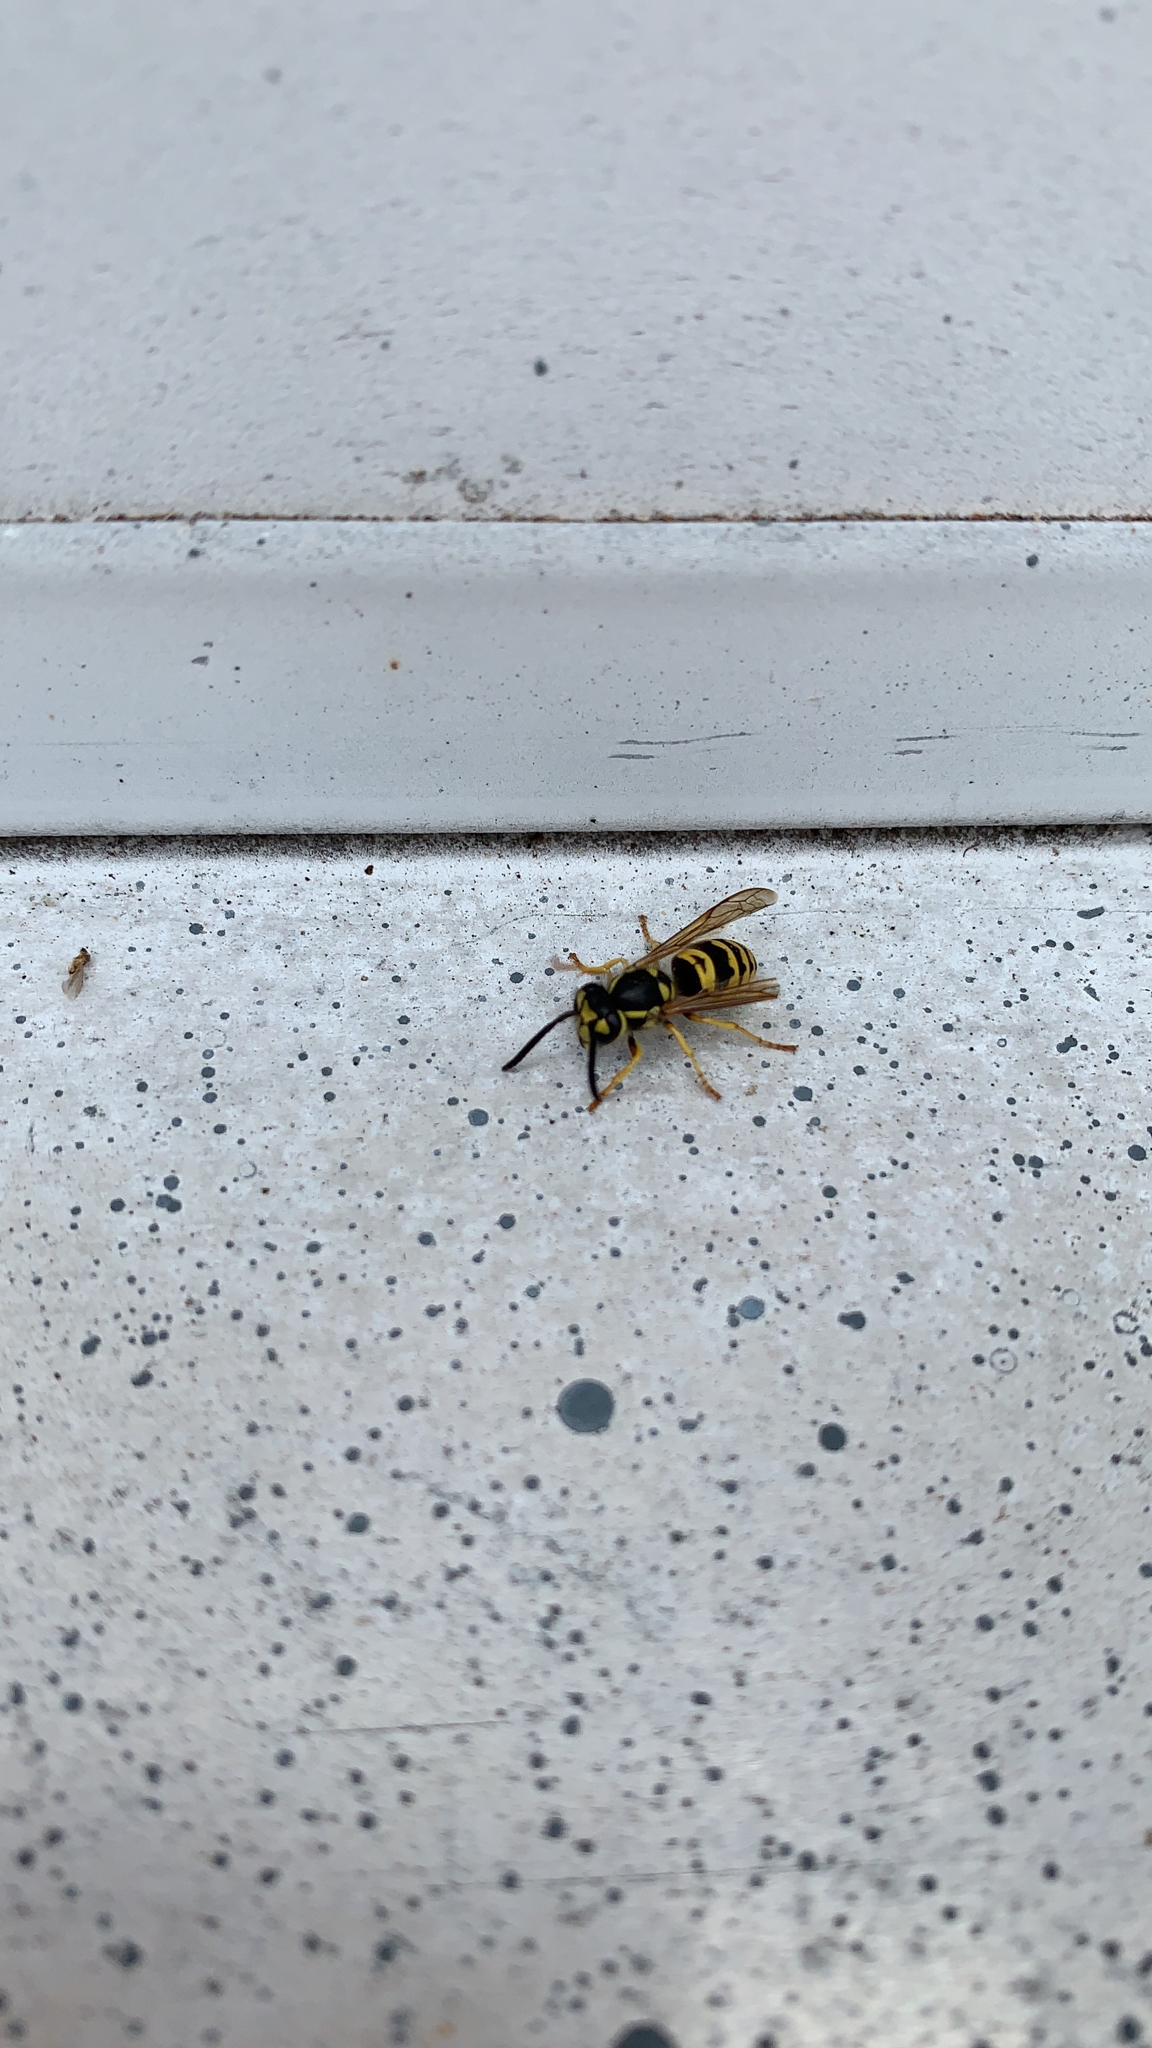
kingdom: Animalia
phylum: Arthropoda
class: Insecta
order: Hymenoptera
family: Vespidae
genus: Vespula
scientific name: Vespula maculifrons
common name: Eastern yellowjacket
